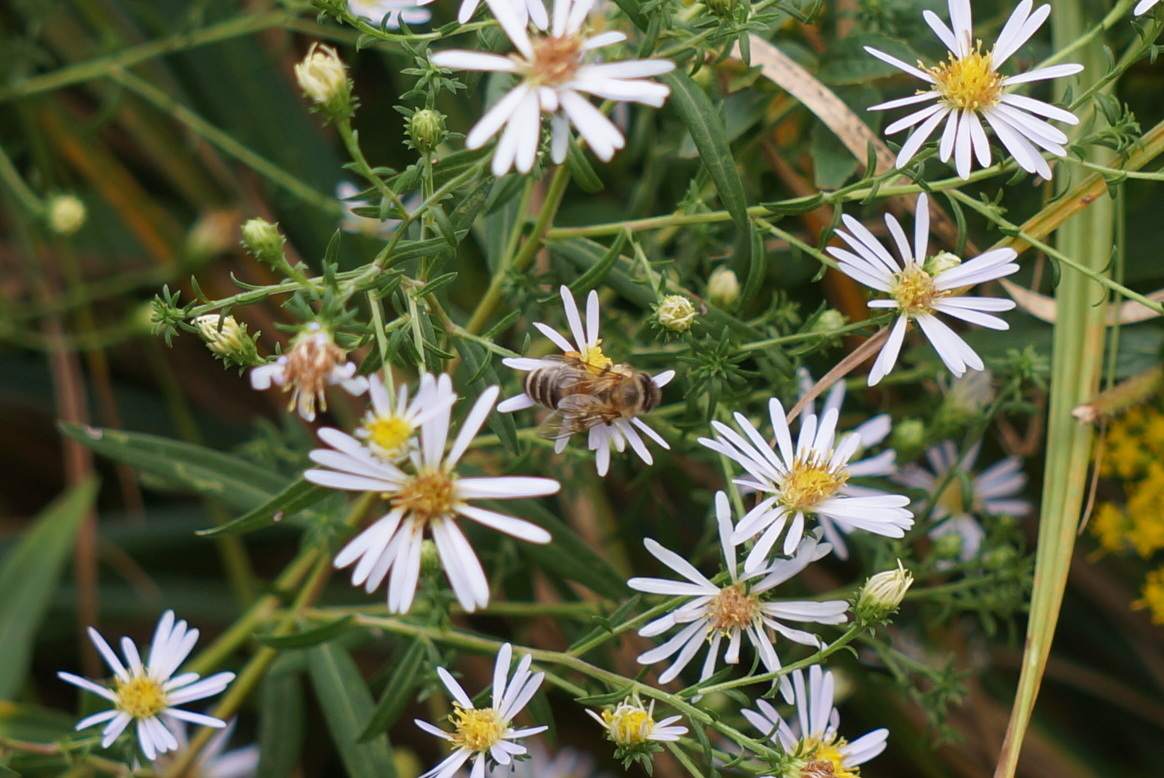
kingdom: Animalia
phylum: Arthropoda
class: Insecta
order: Hymenoptera
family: Apidae
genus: Apis
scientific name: Apis mellifera
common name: Honey bee
